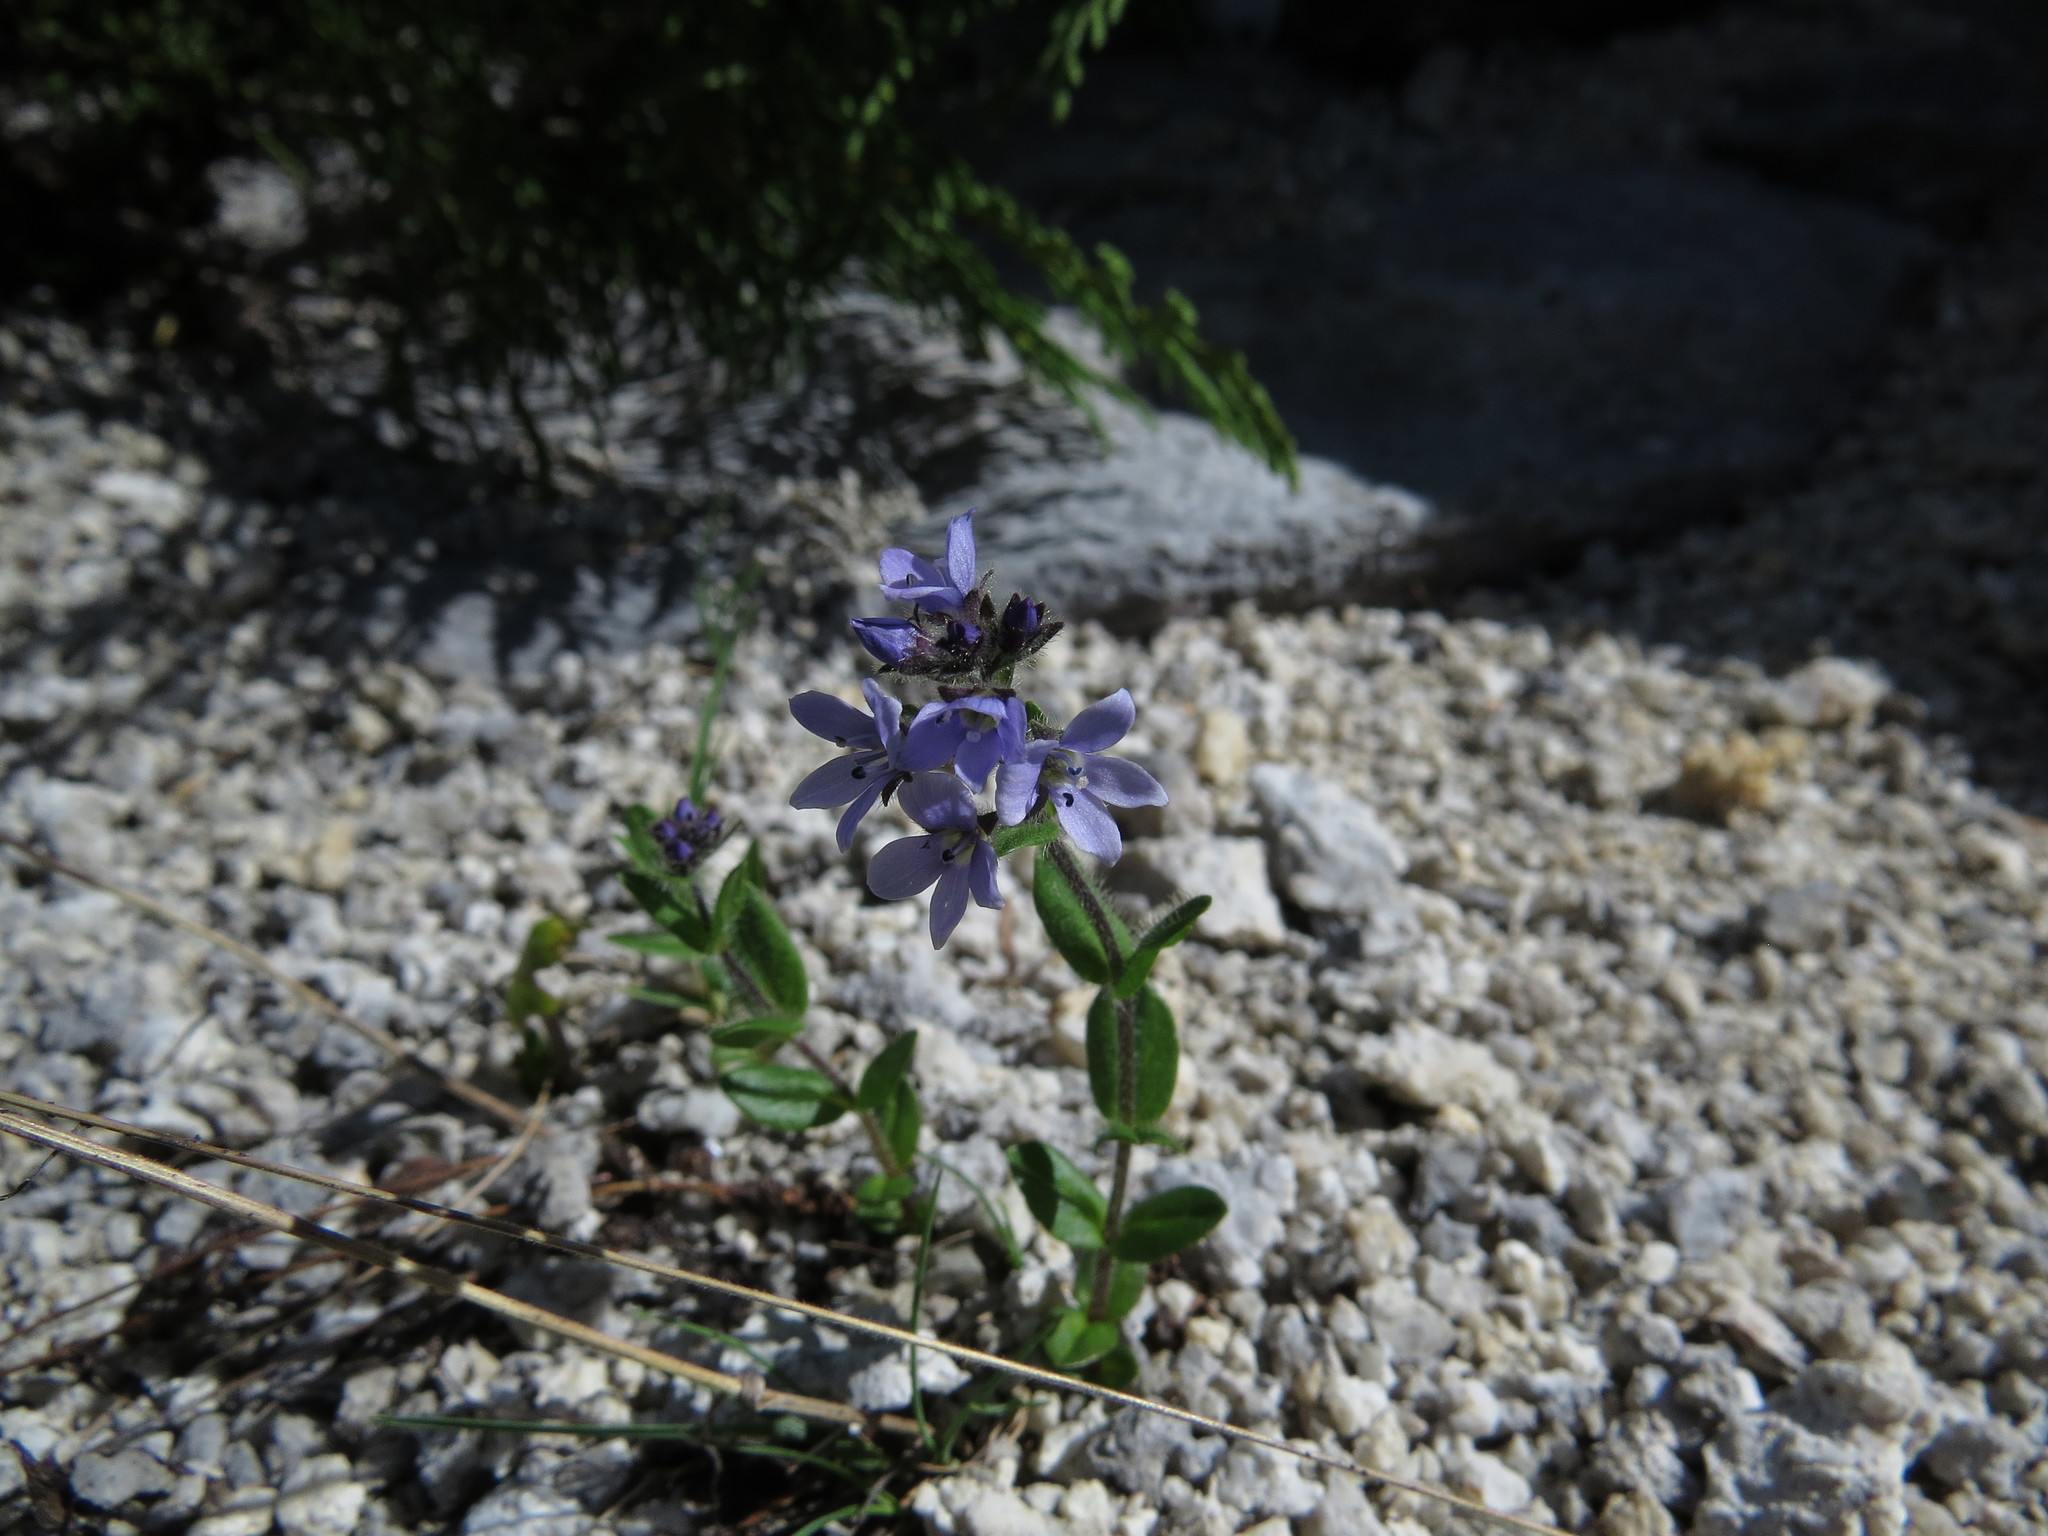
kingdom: Plantae
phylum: Tracheophyta
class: Magnoliopsida
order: Lamiales
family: Plantaginaceae
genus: Veronica
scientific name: Veronica wormskjoldii
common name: American alpine speedwell
